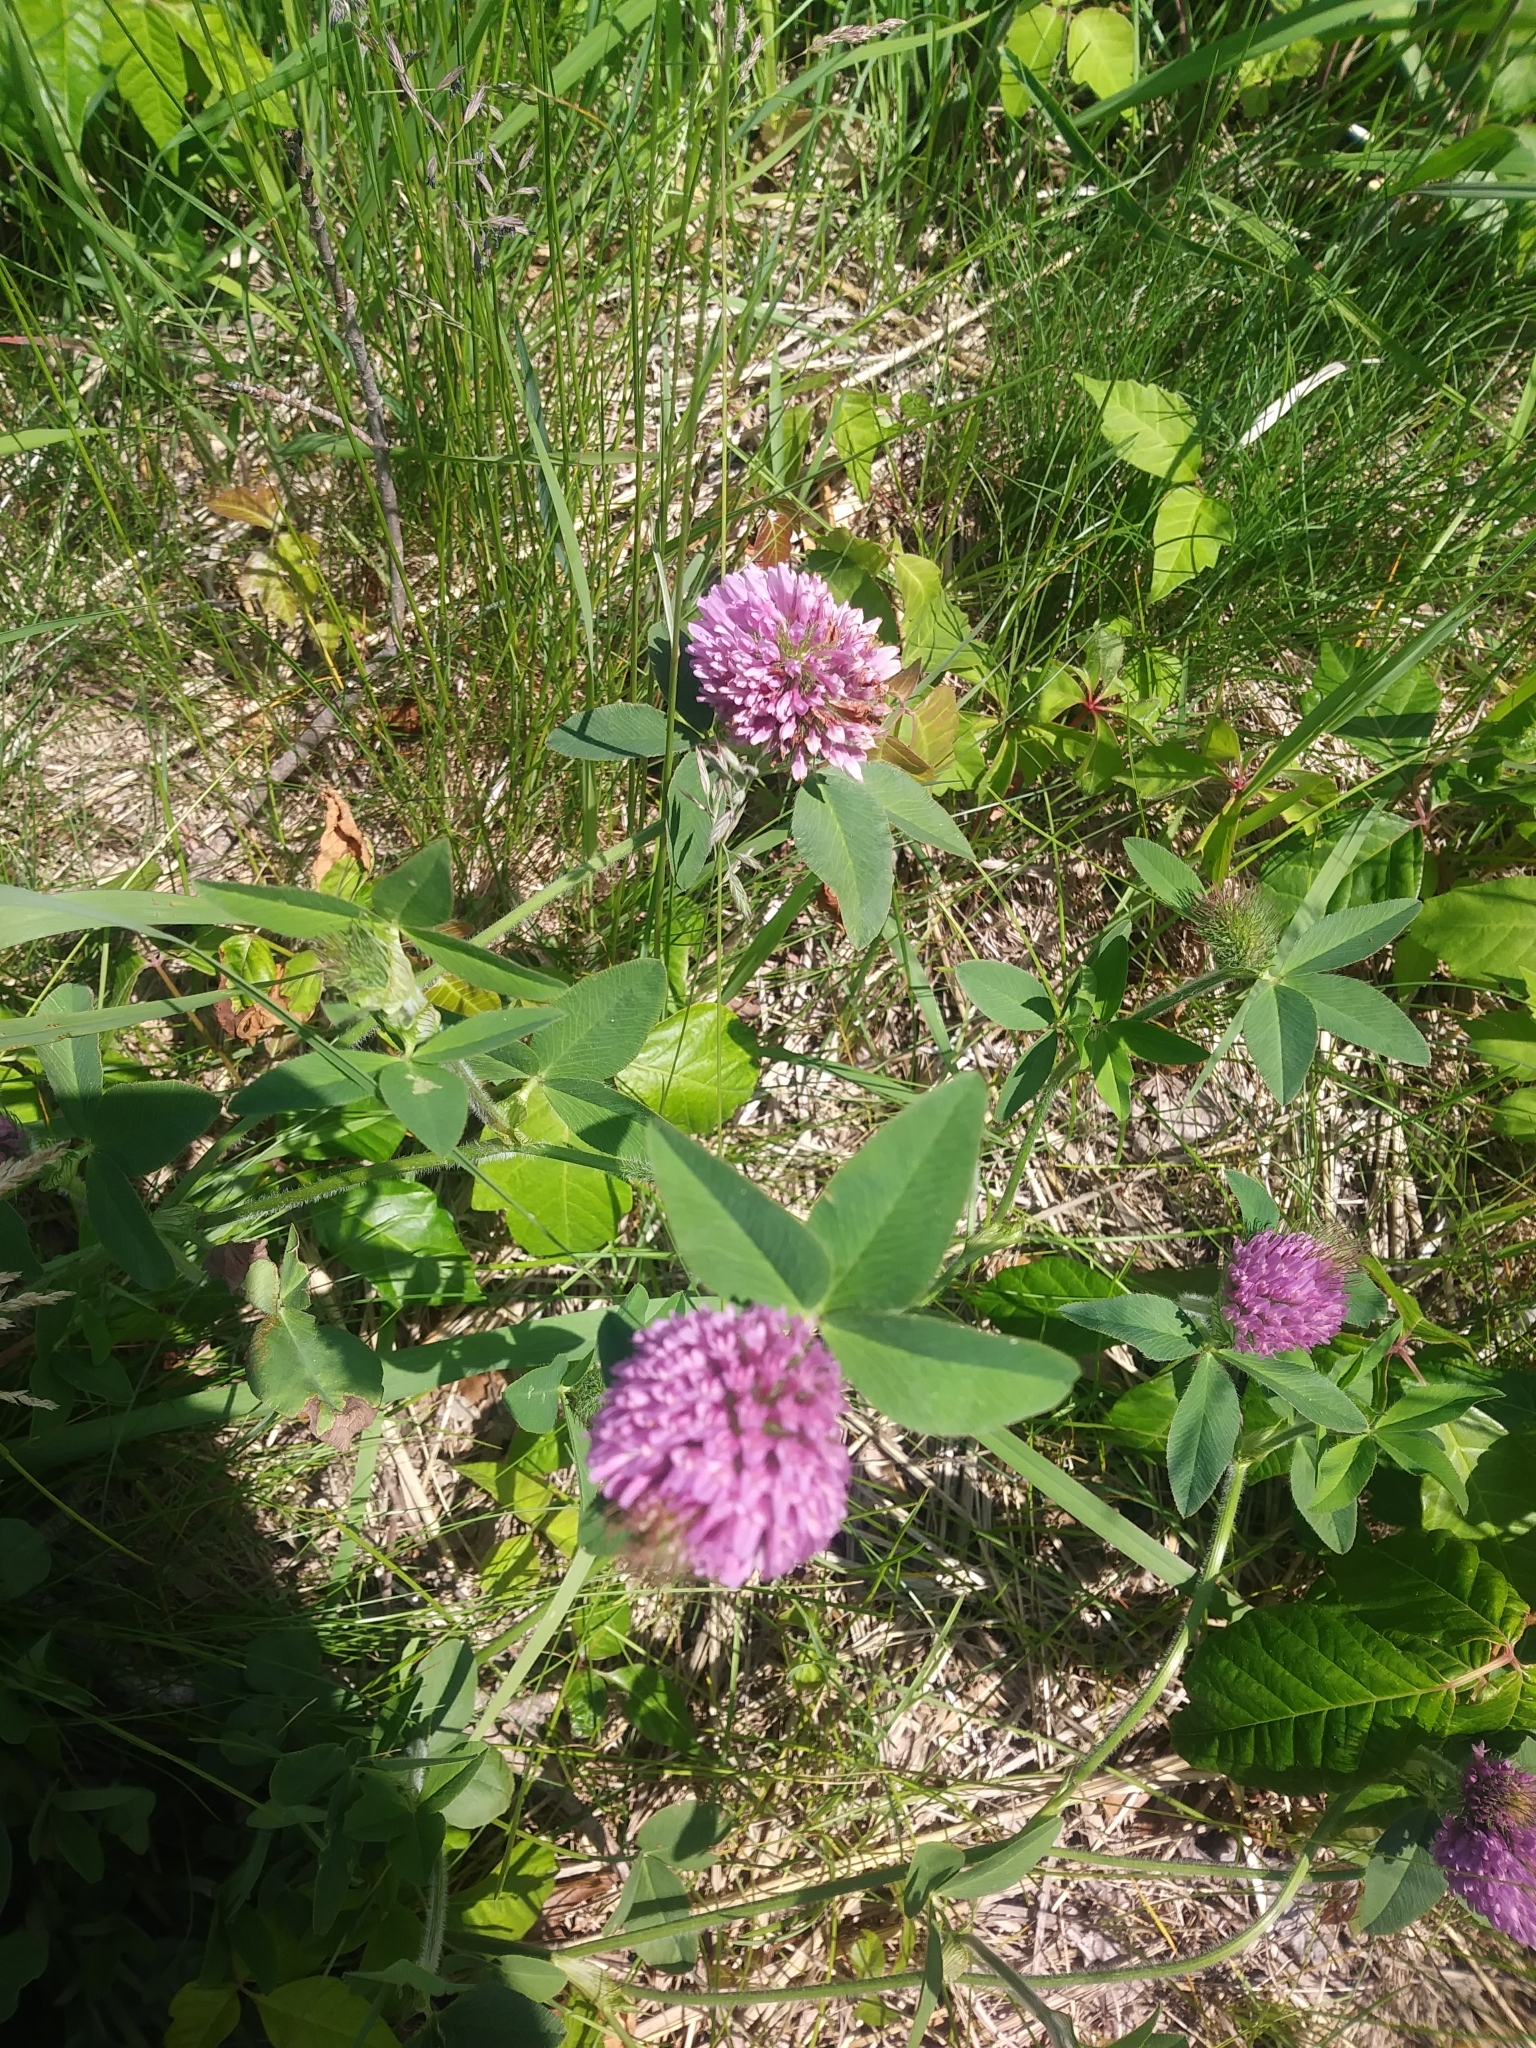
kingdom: Plantae
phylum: Tracheophyta
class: Magnoliopsida
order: Fabales
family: Fabaceae
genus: Trifolium
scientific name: Trifolium pratense
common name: Red clover
